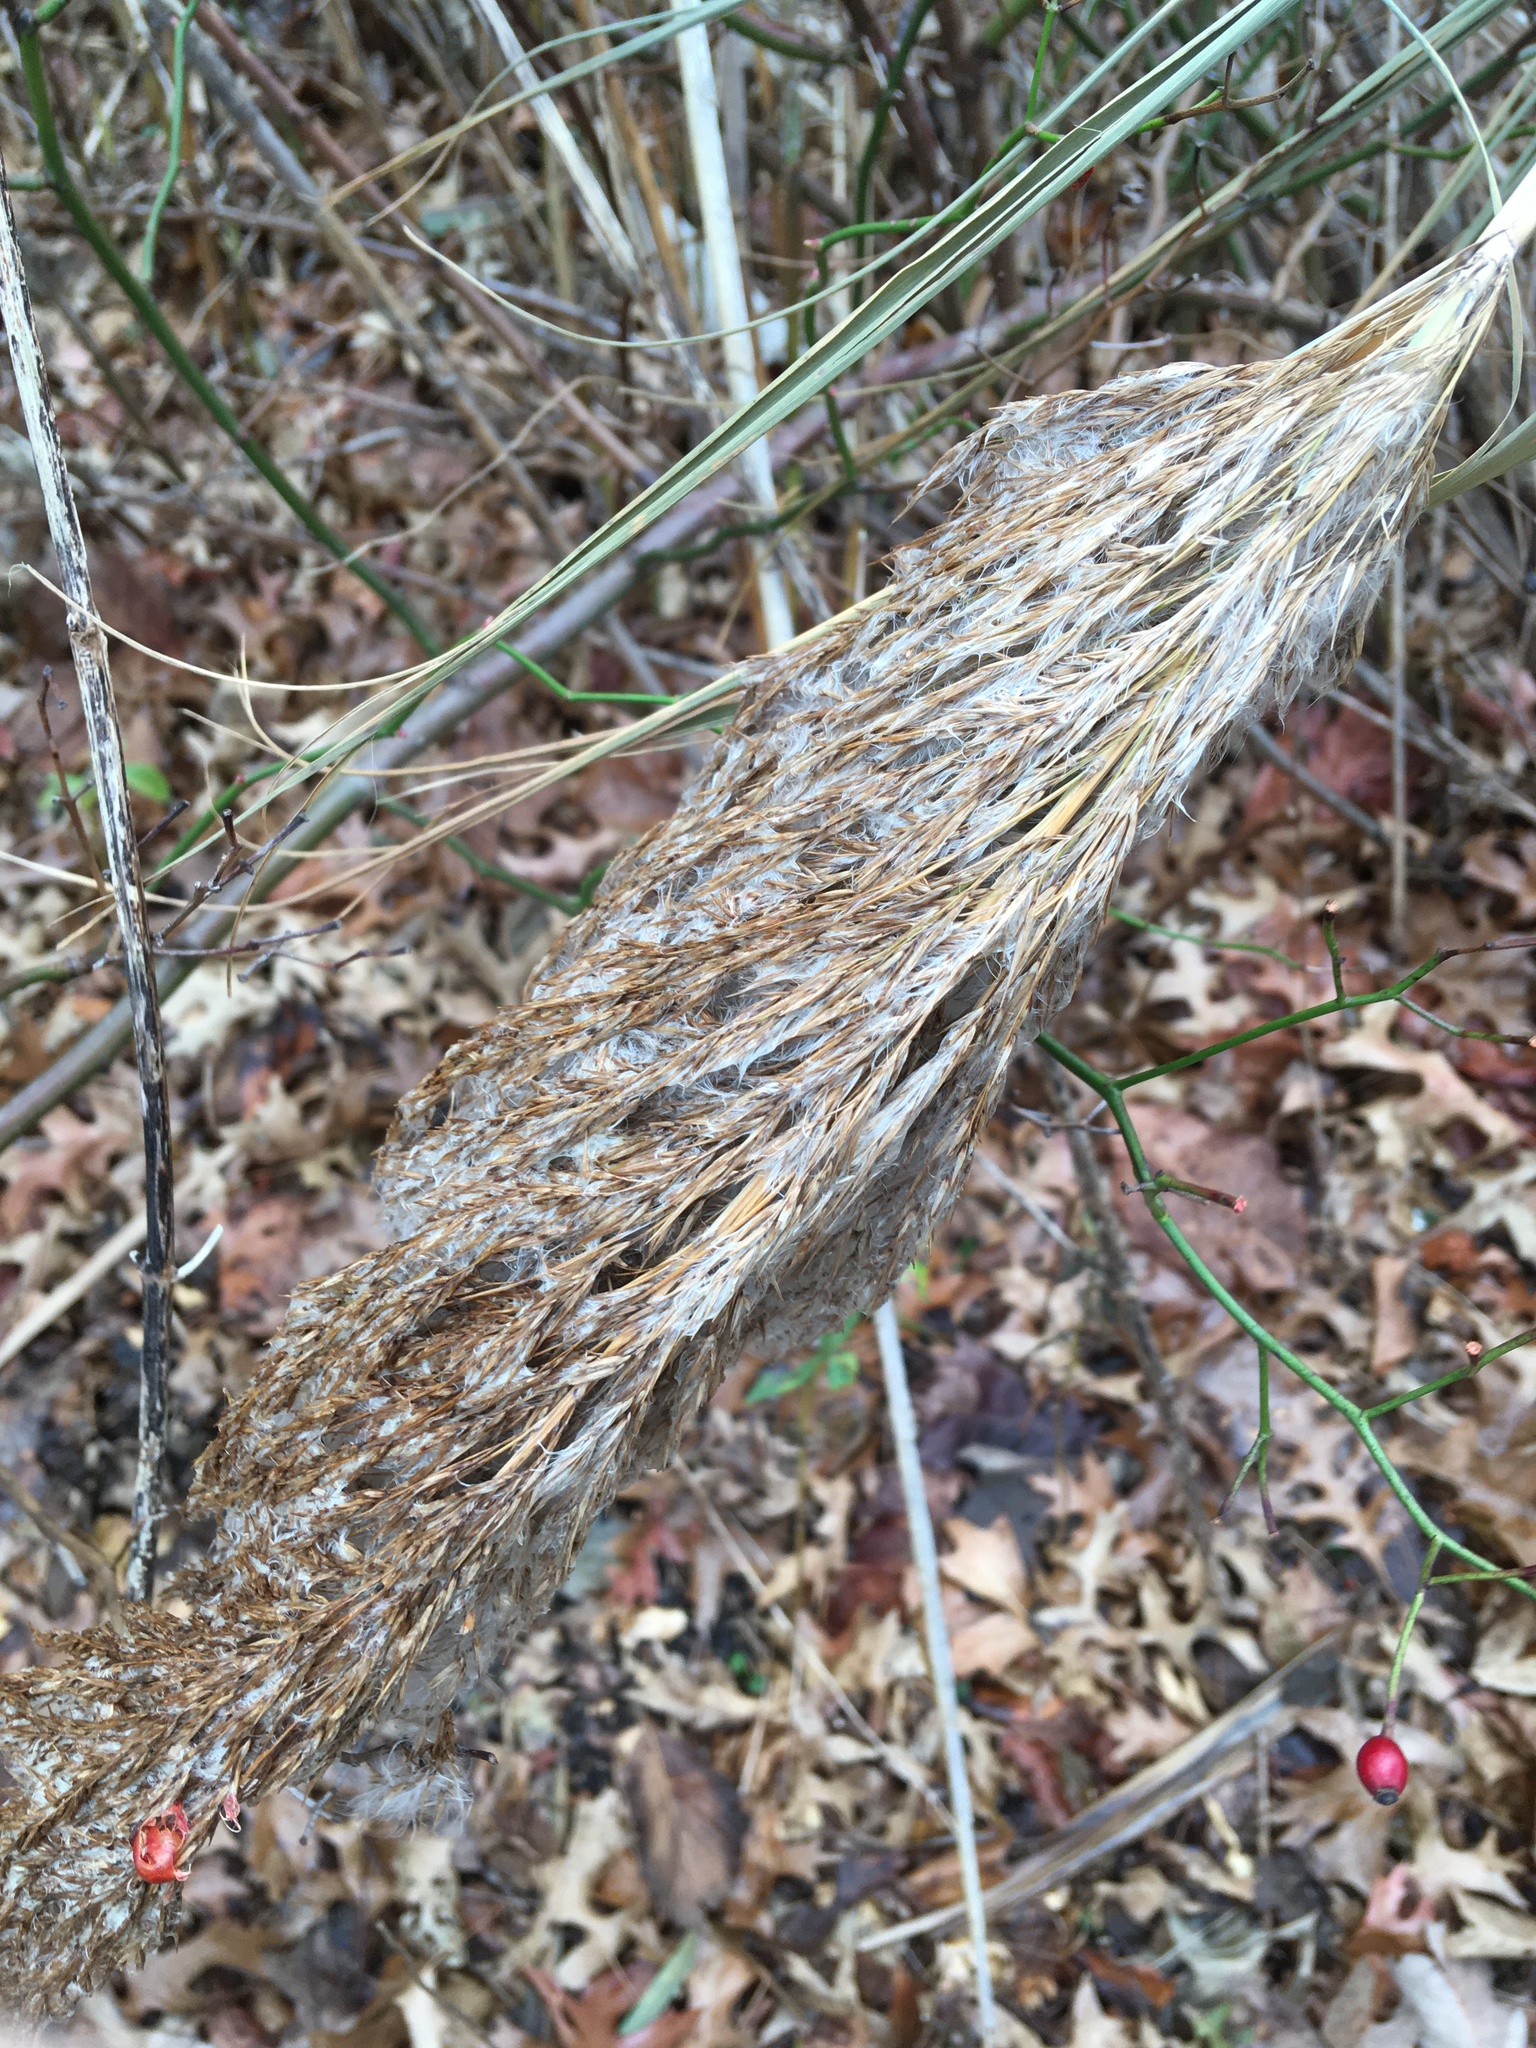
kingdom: Plantae
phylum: Tracheophyta
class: Liliopsida
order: Poales
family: Poaceae
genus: Phragmites
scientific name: Phragmites australis
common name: Common reed
